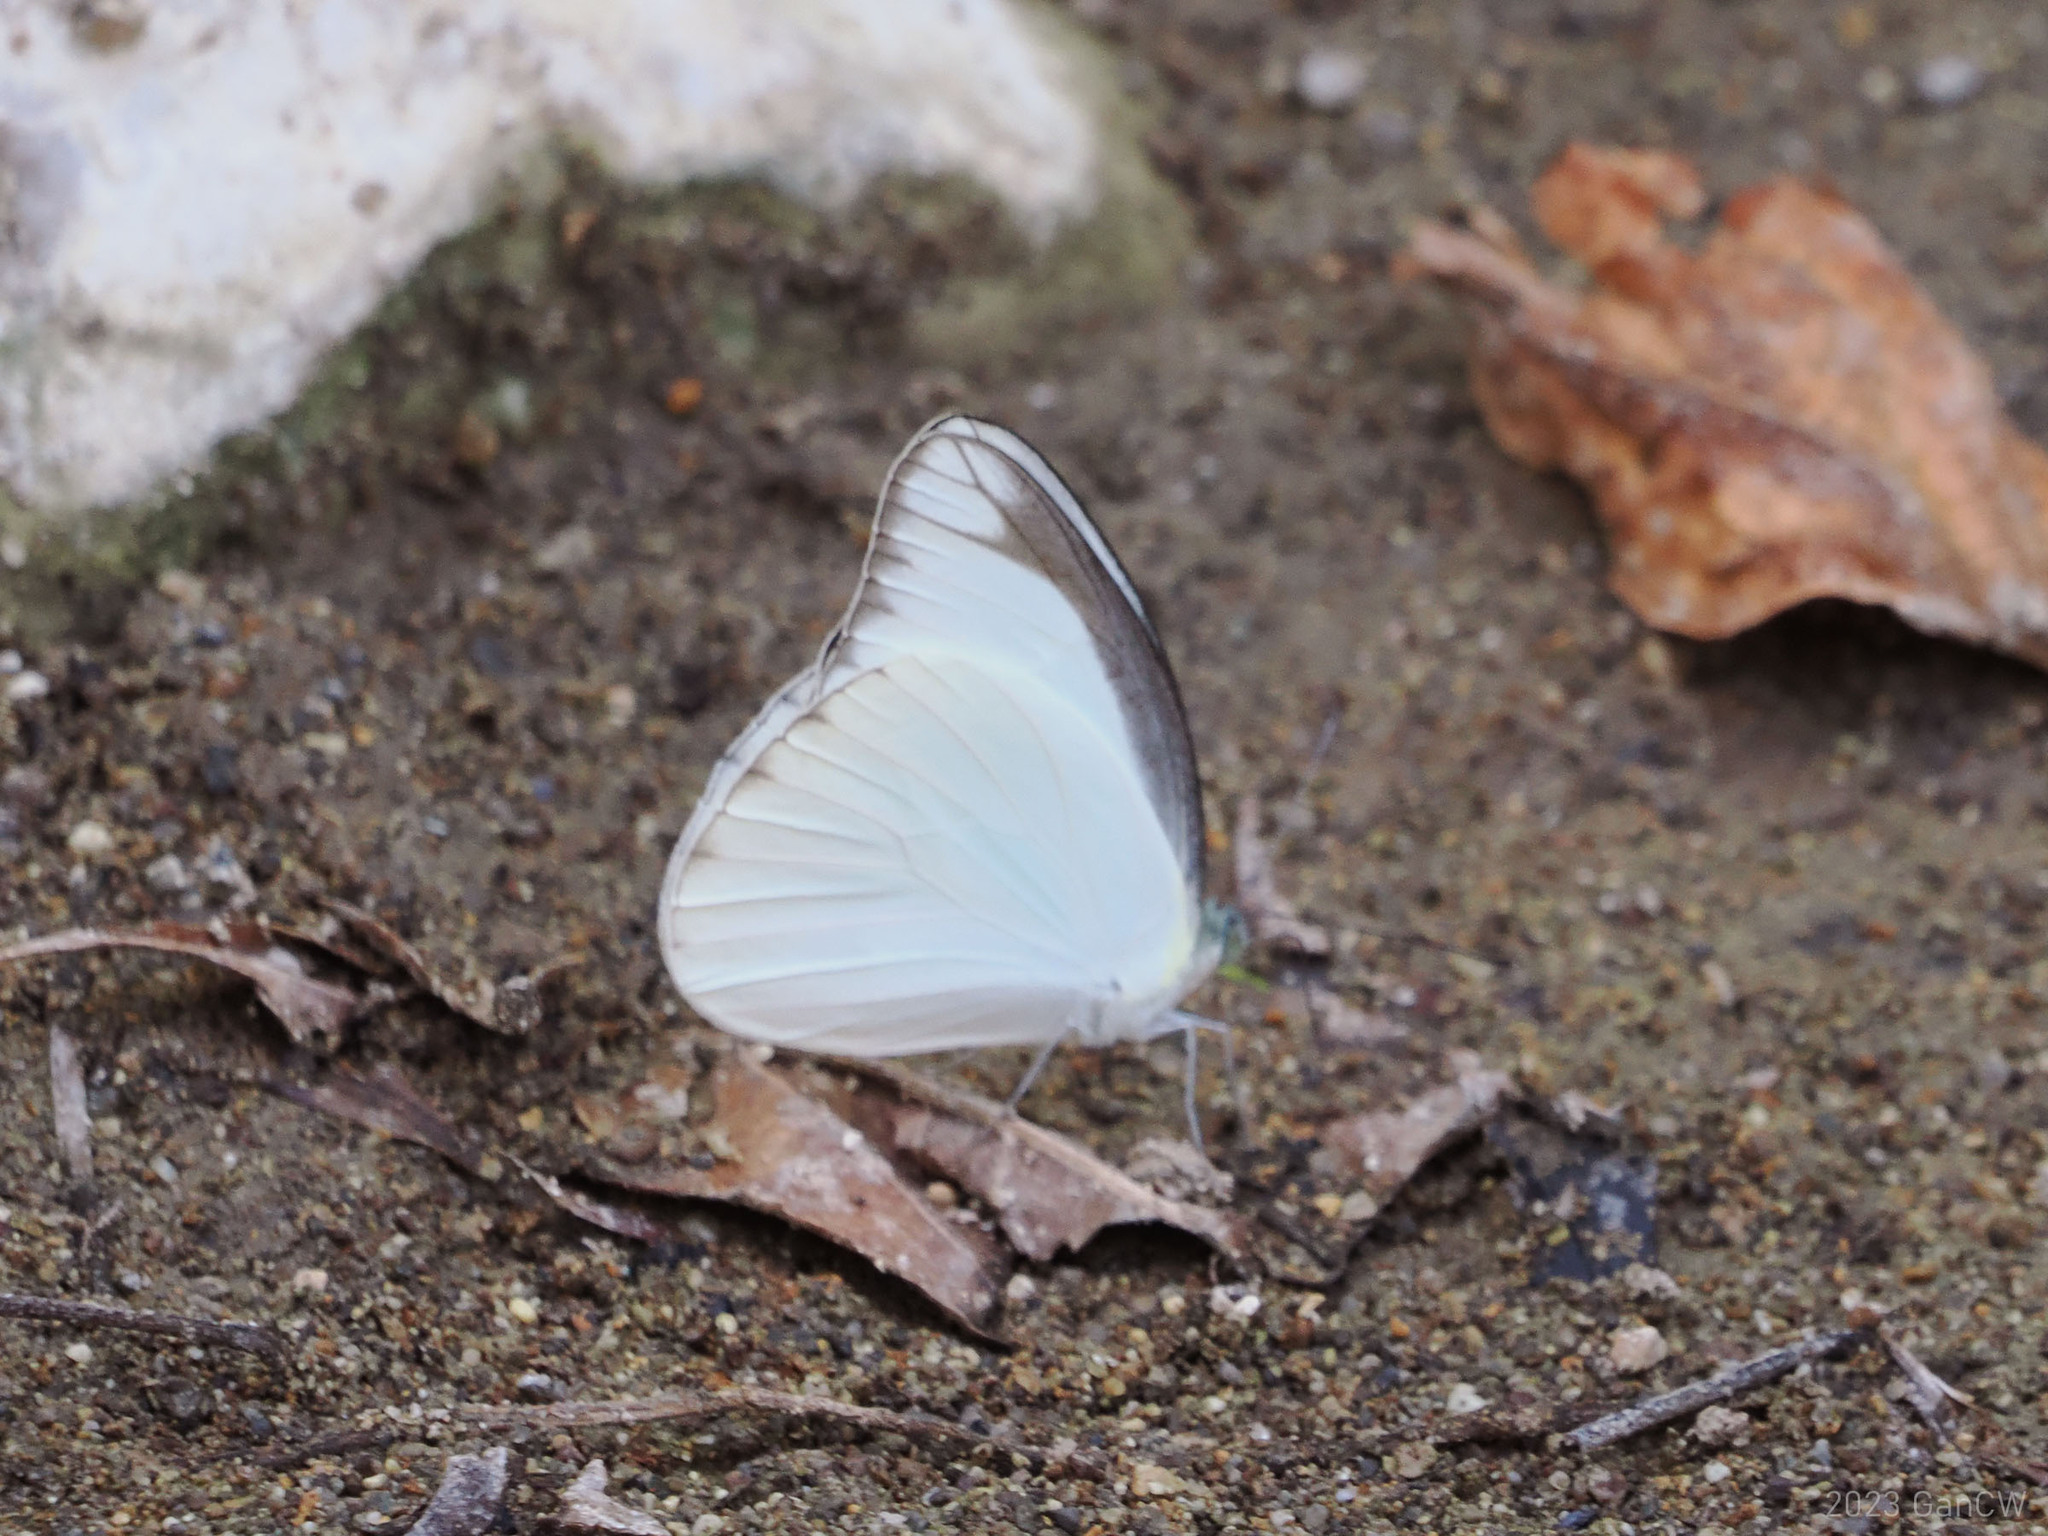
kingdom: Animalia
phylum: Arthropoda
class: Insecta
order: Lepidoptera
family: Pieridae
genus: Appias
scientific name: Appias lyncida
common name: Chocolate albatross
